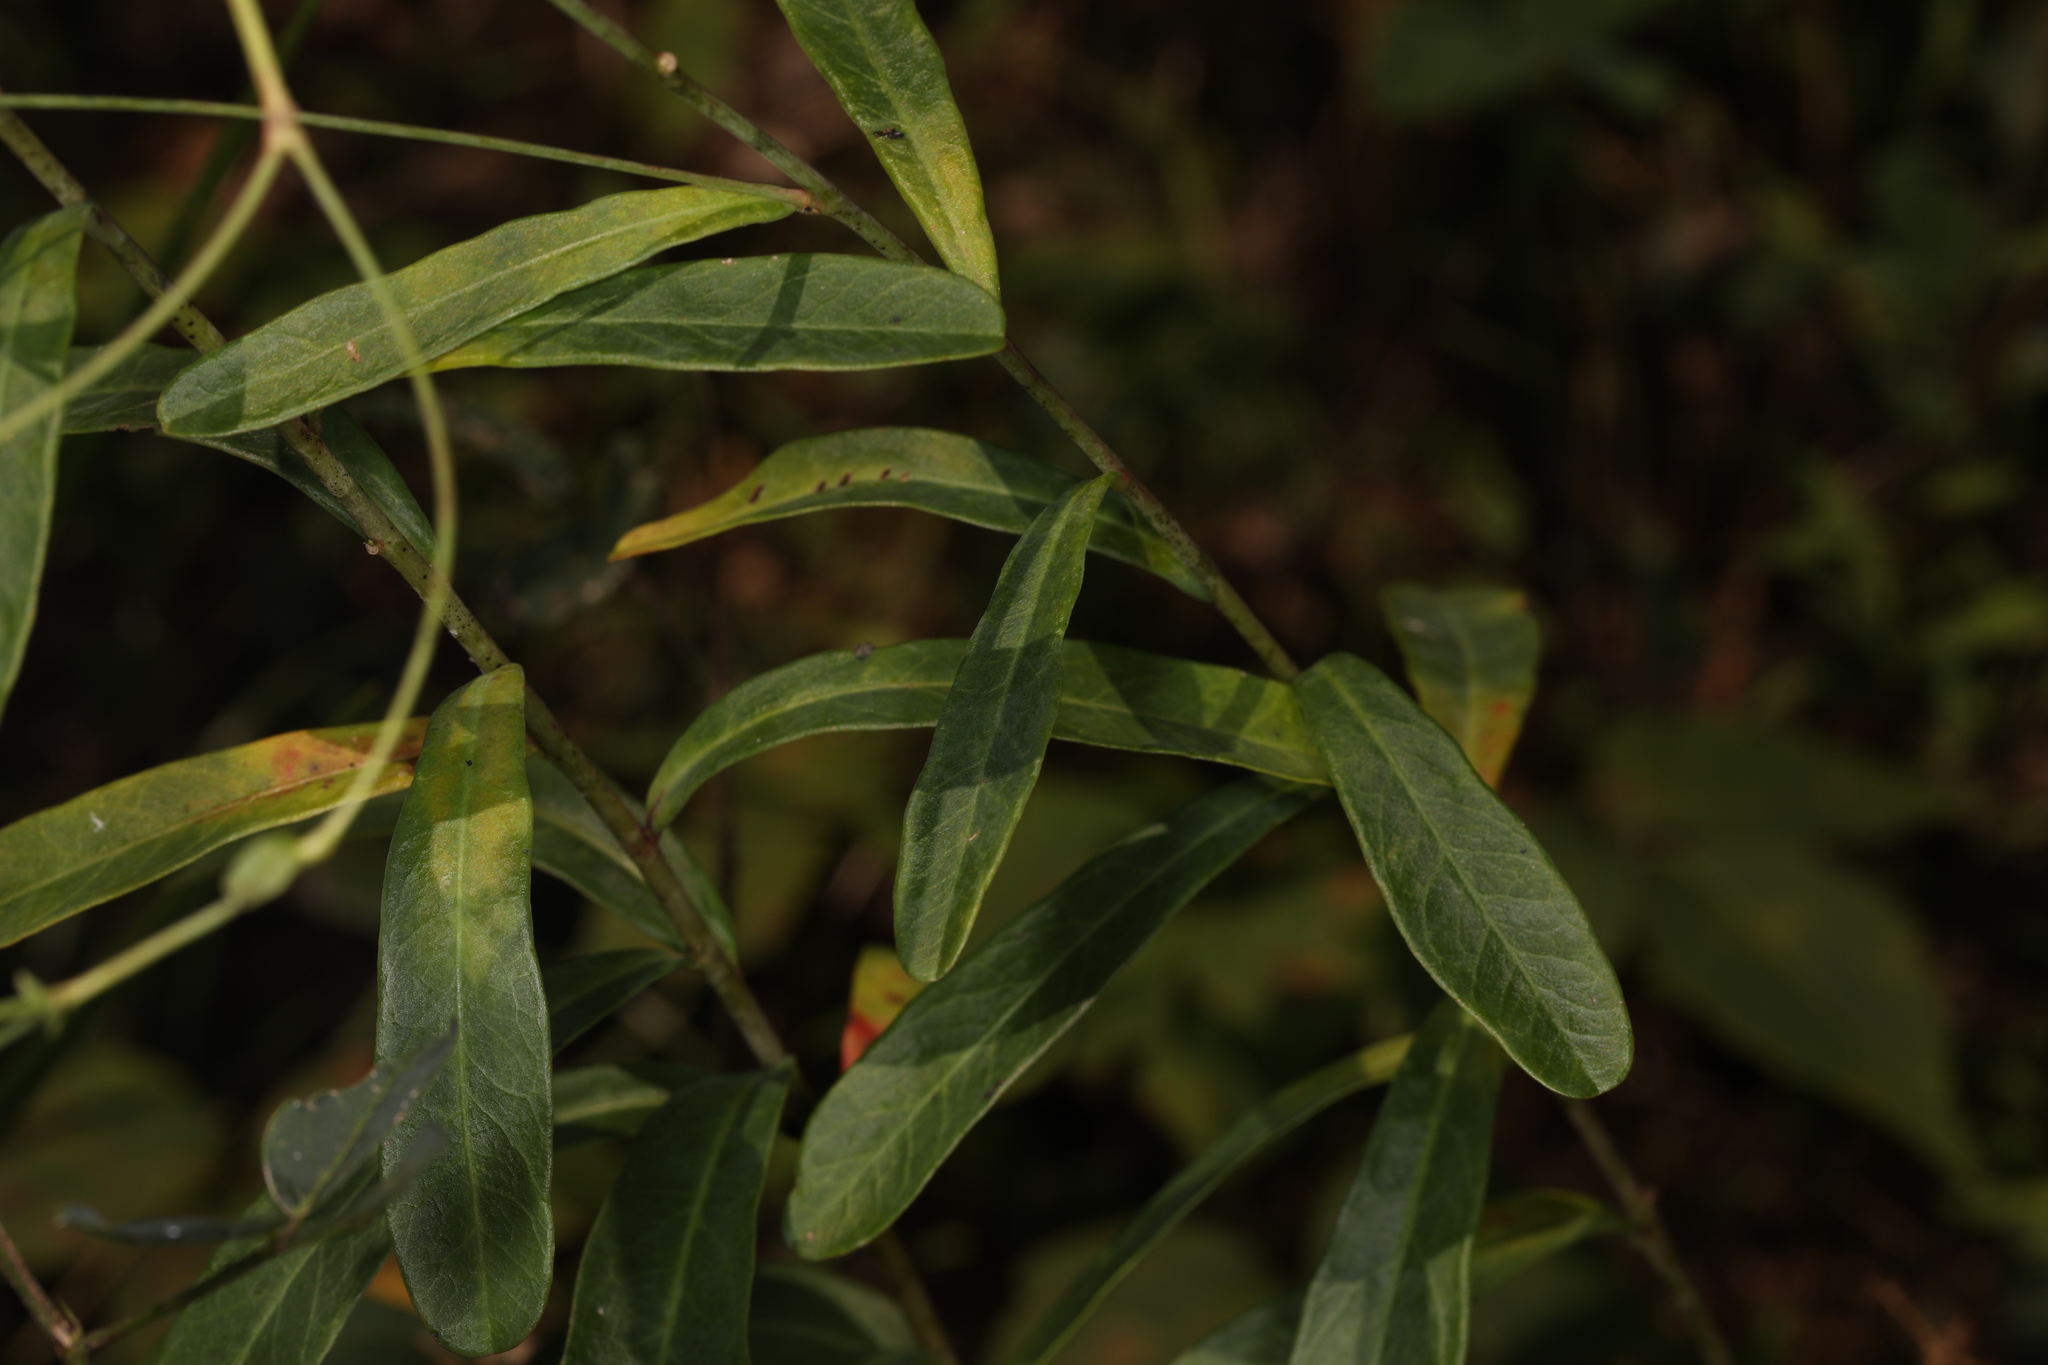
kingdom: Plantae
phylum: Tracheophyta
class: Magnoliopsida
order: Malpighiales
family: Euphorbiaceae
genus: Euphorbia
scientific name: Euphorbia corollata
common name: Flowering spurge
